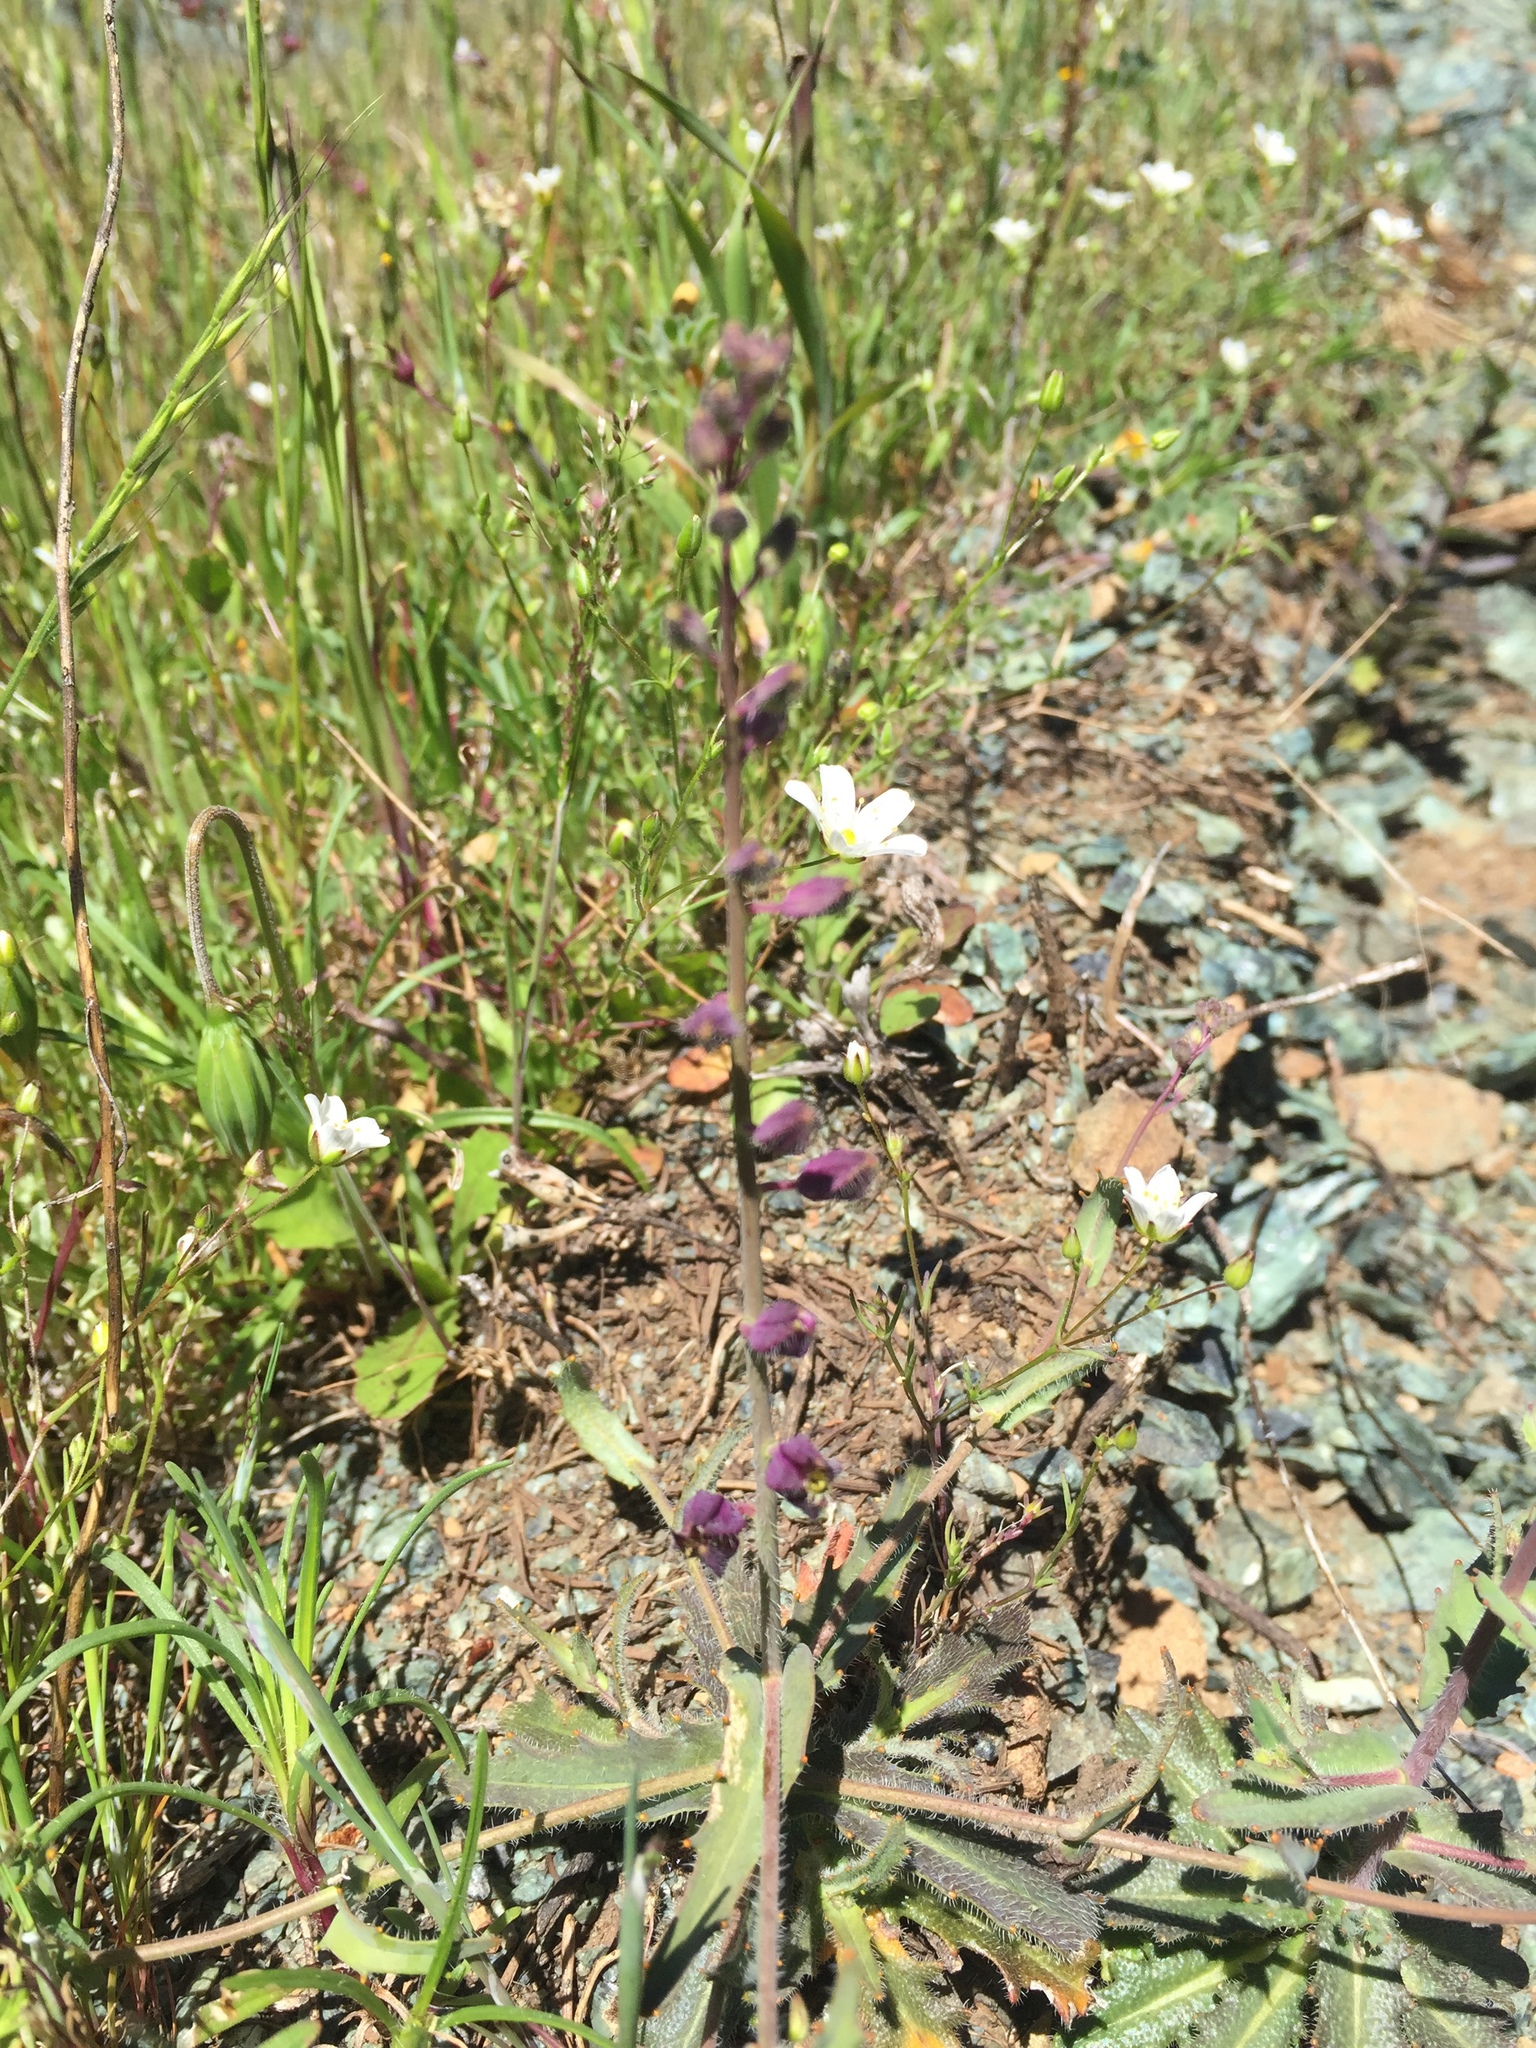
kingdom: Plantae
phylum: Tracheophyta
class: Magnoliopsida
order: Brassicales
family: Brassicaceae
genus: Streptanthus
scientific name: Streptanthus glandulosus
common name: Jewel-flower
